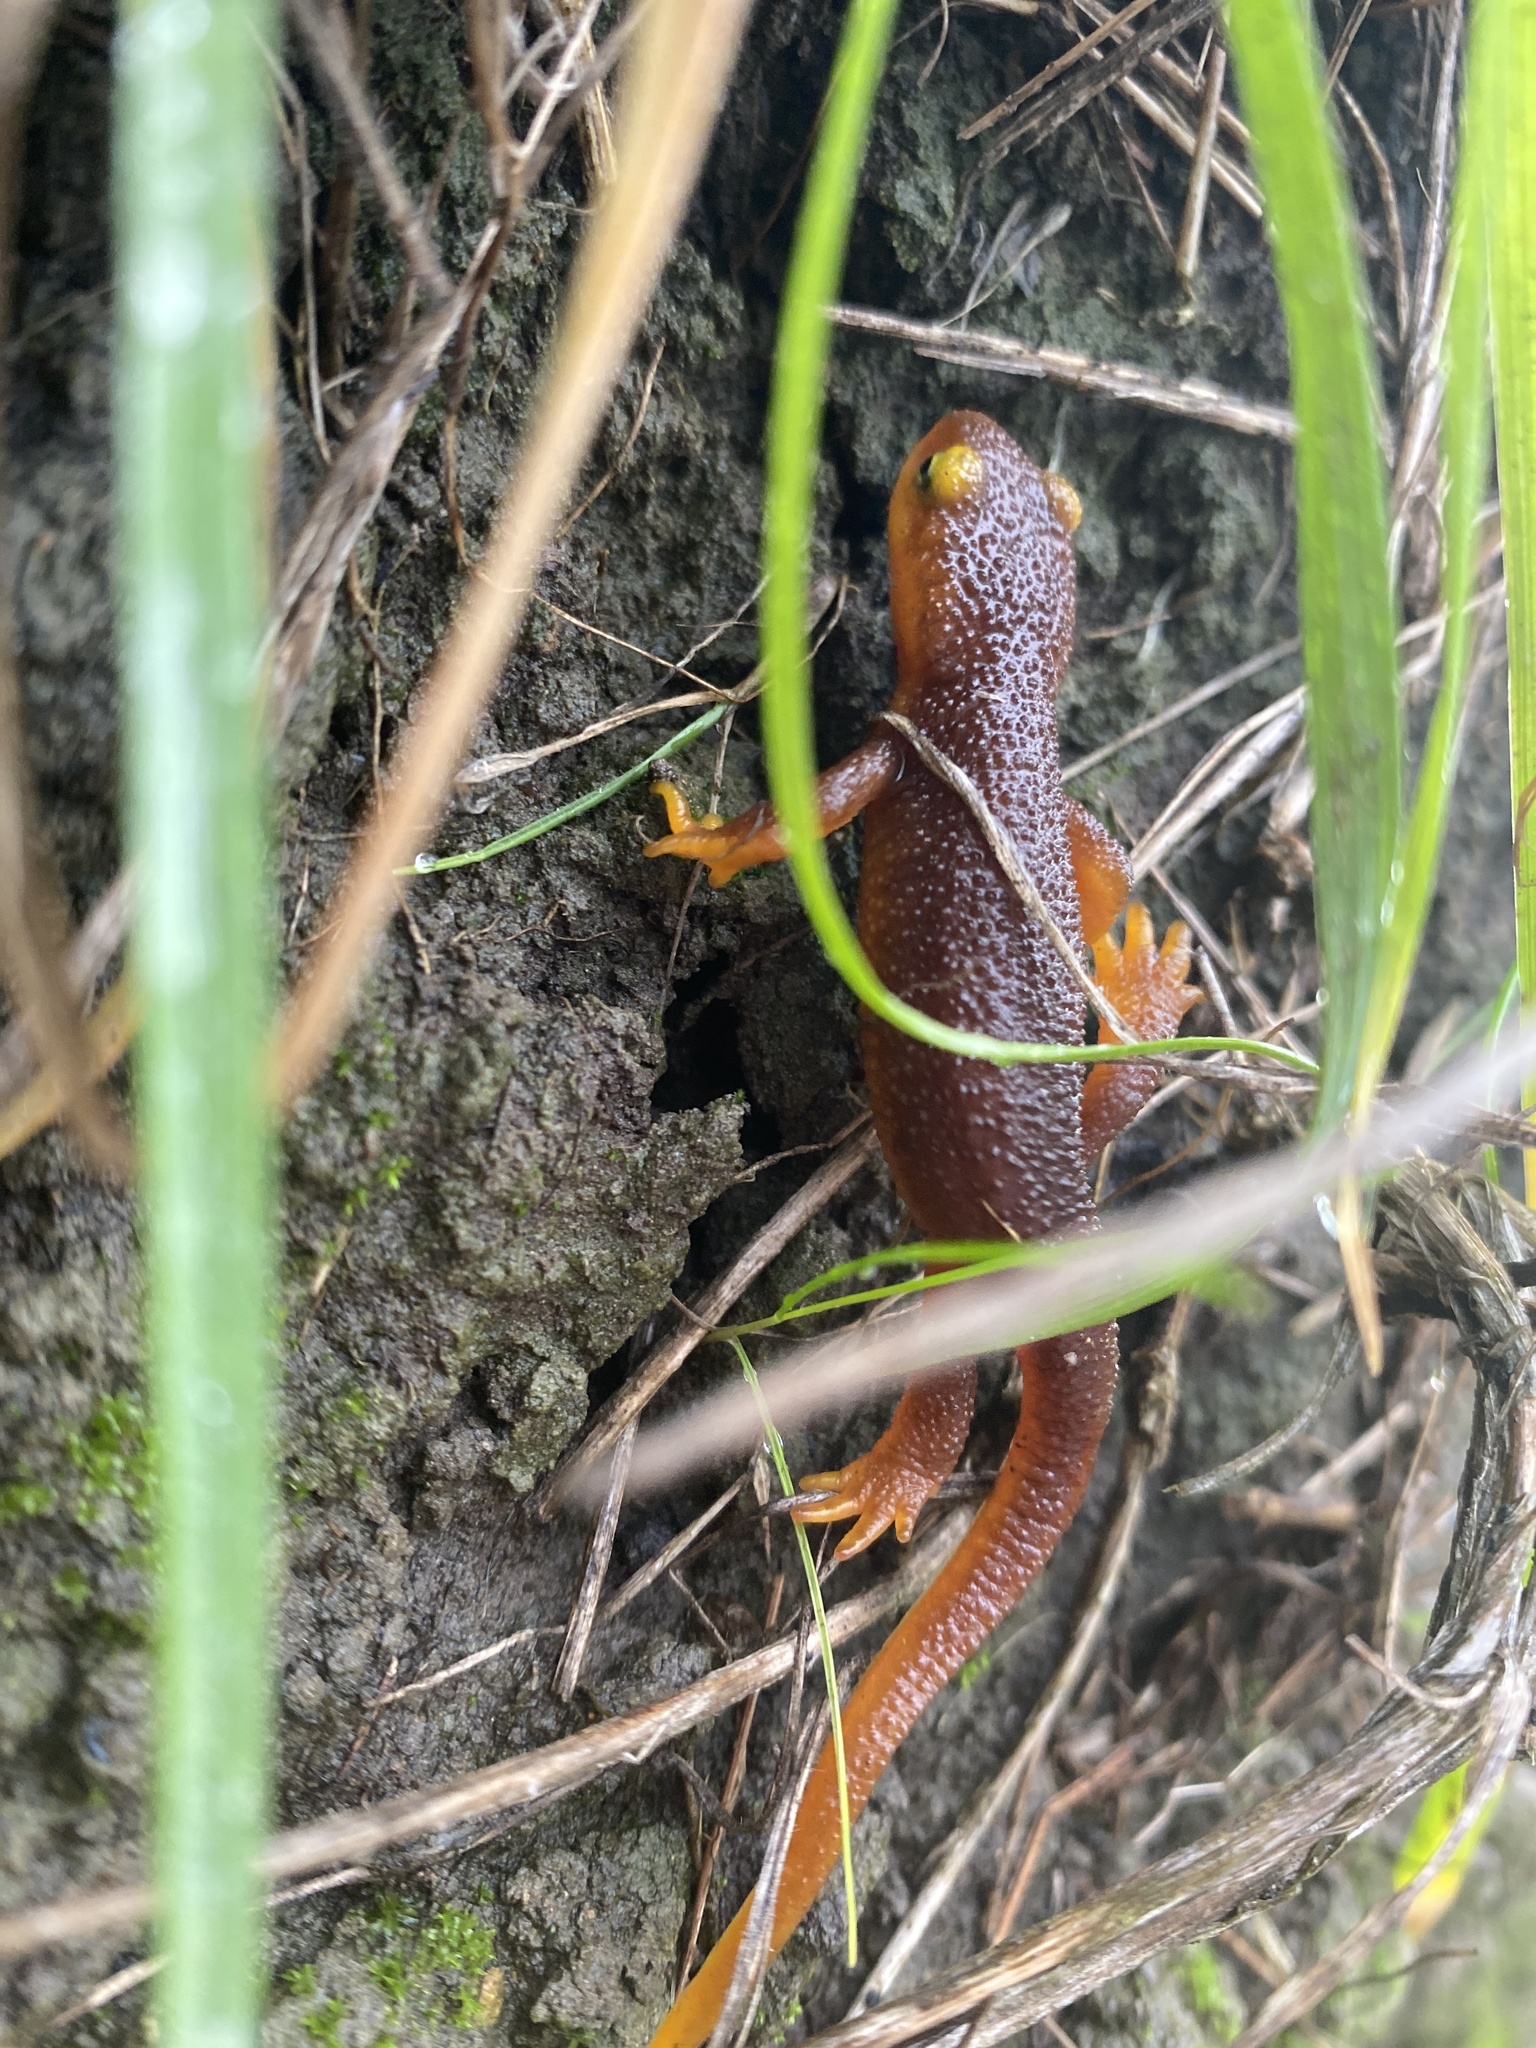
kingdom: Animalia
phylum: Chordata
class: Amphibia
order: Caudata
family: Salamandridae
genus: Taricha
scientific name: Taricha torosa
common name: California newt
